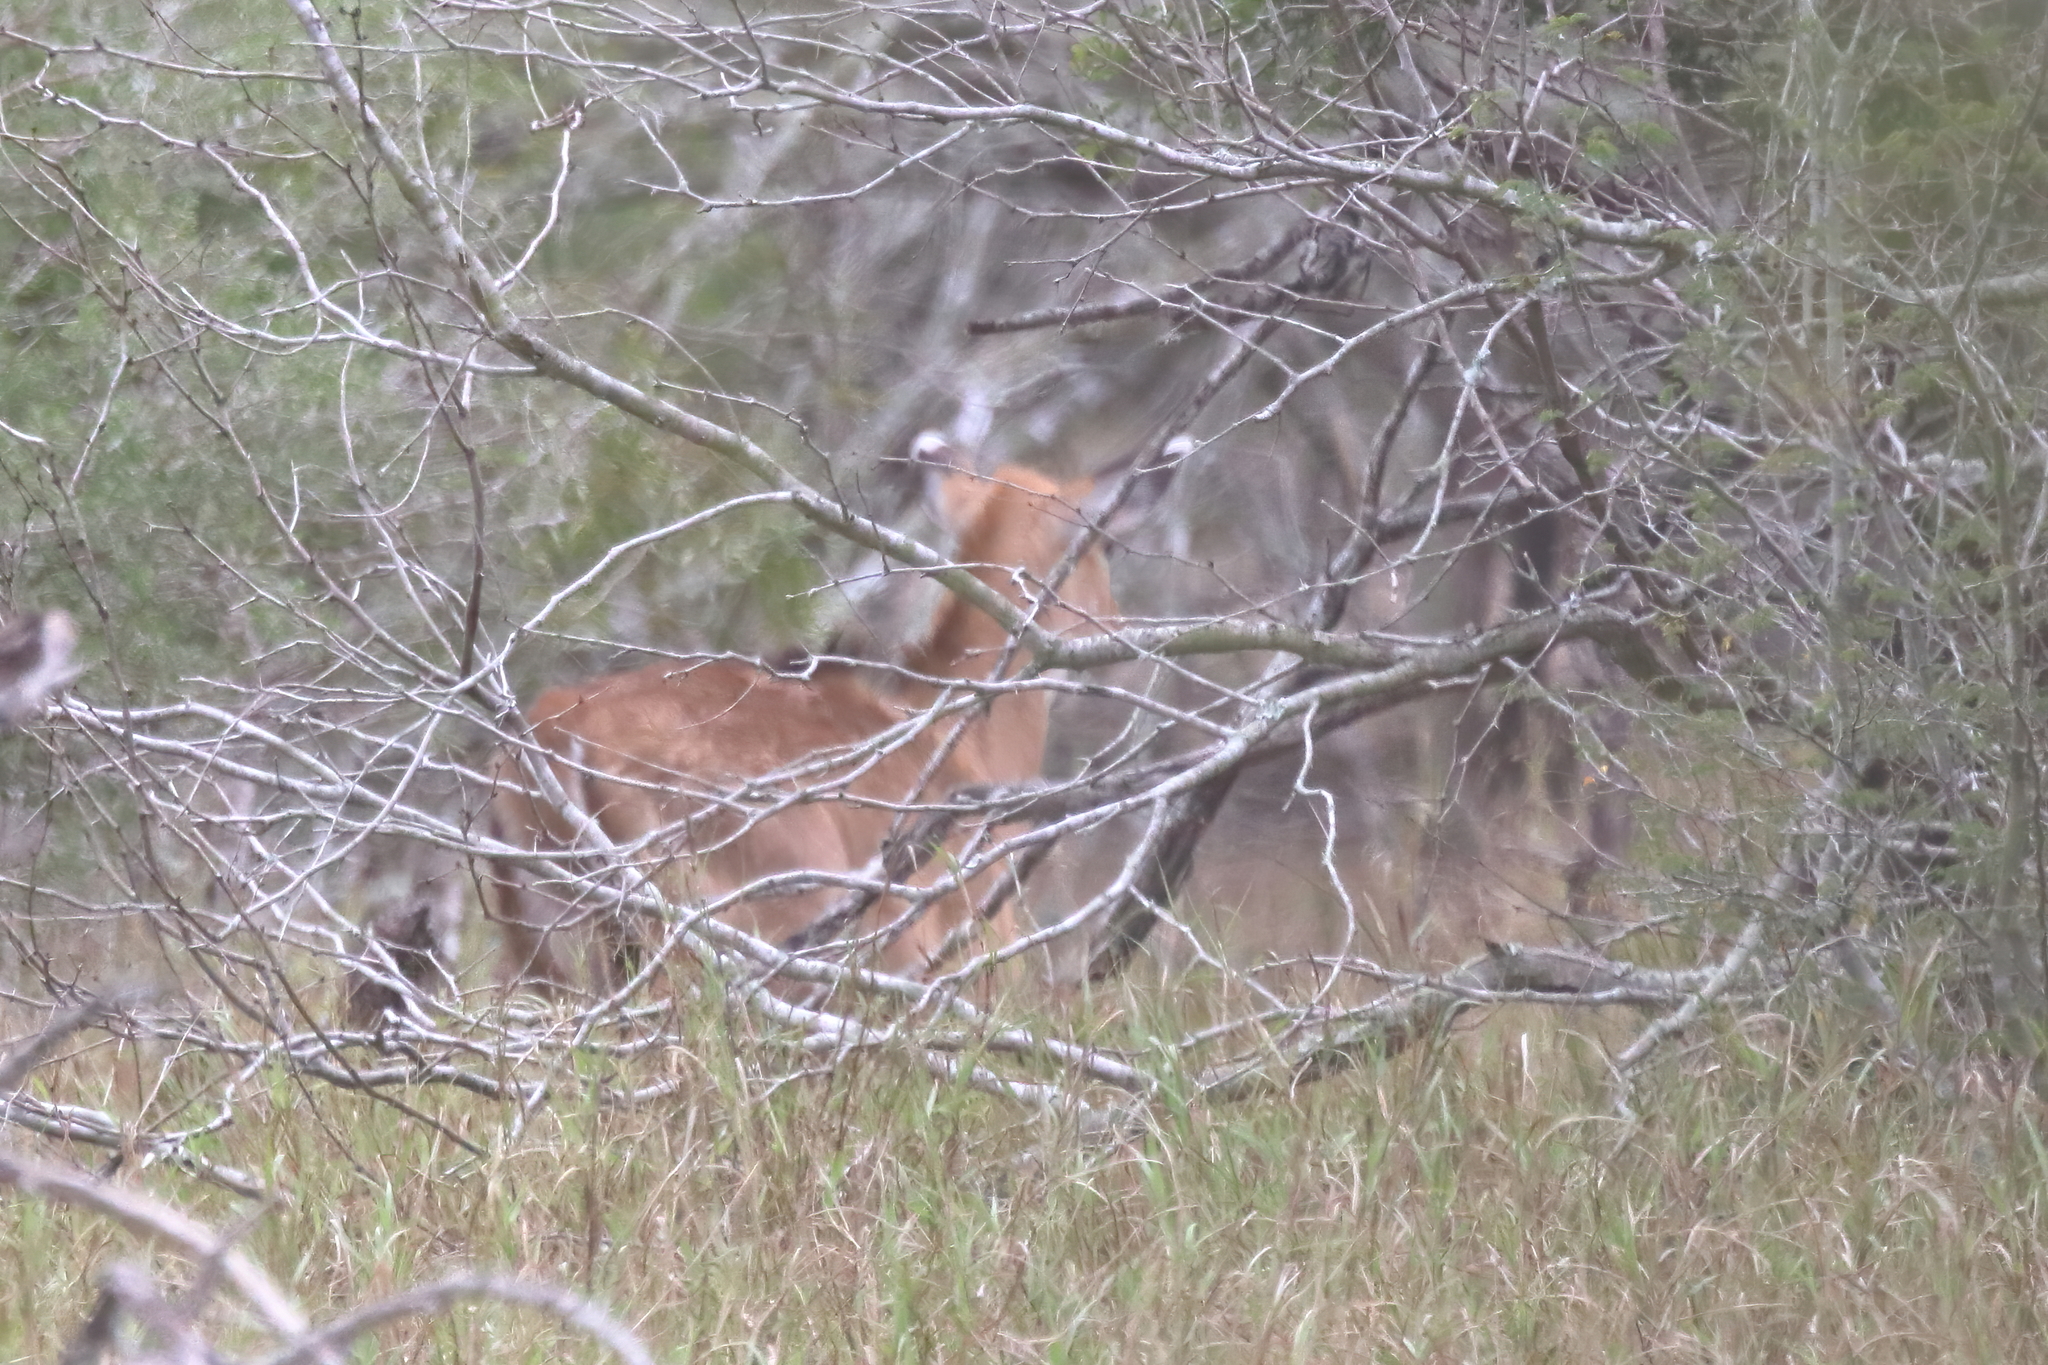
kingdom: Animalia
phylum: Chordata
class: Mammalia
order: Artiodactyla
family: Bovidae
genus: Boselaphus
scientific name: Boselaphus tragocamelus
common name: Nilgai
